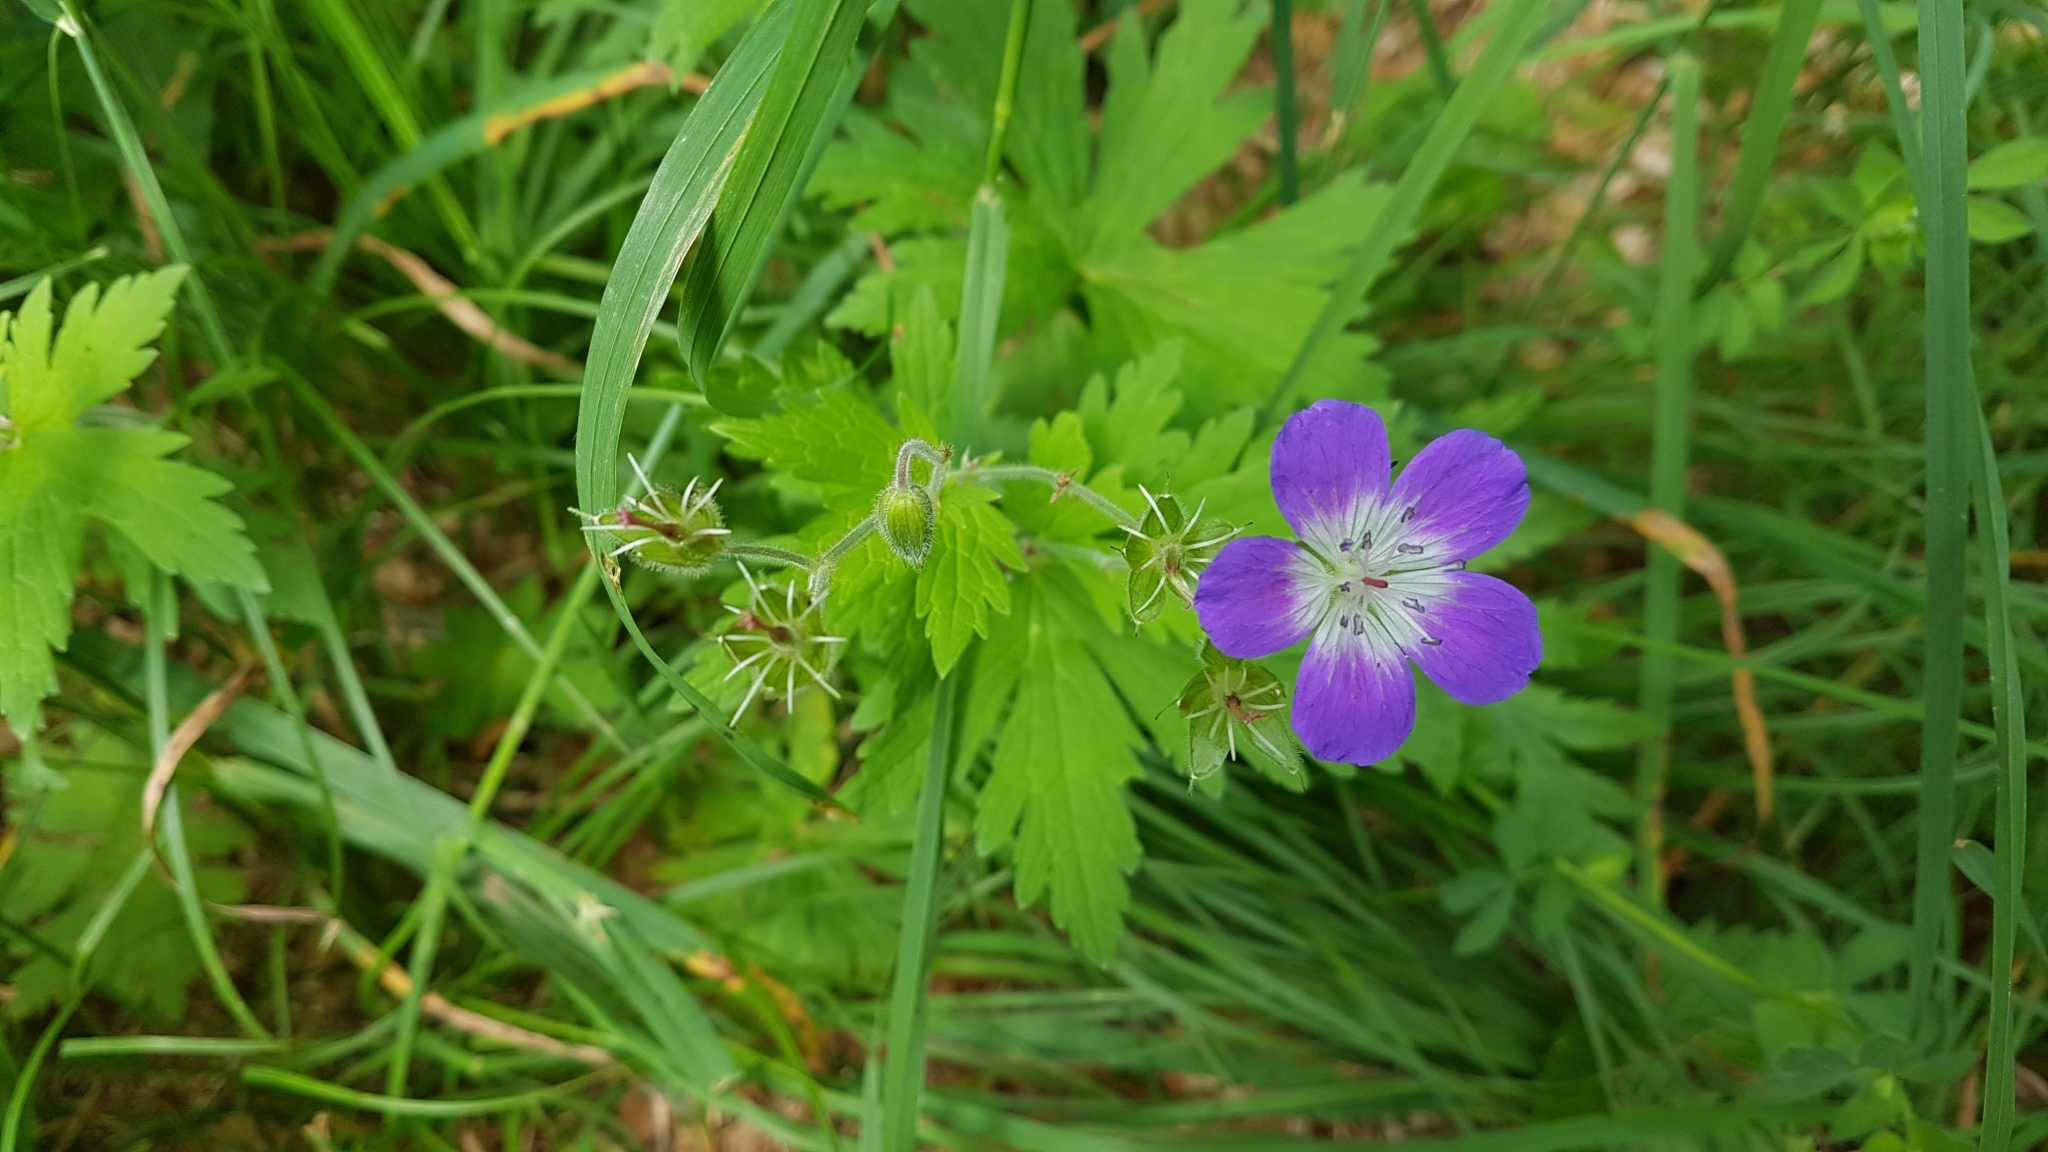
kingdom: Plantae
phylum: Tracheophyta
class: Magnoliopsida
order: Geraniales
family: Geraniaceae
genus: Geranium
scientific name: Geranium sylvaticum
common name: Wood crane's-bill
